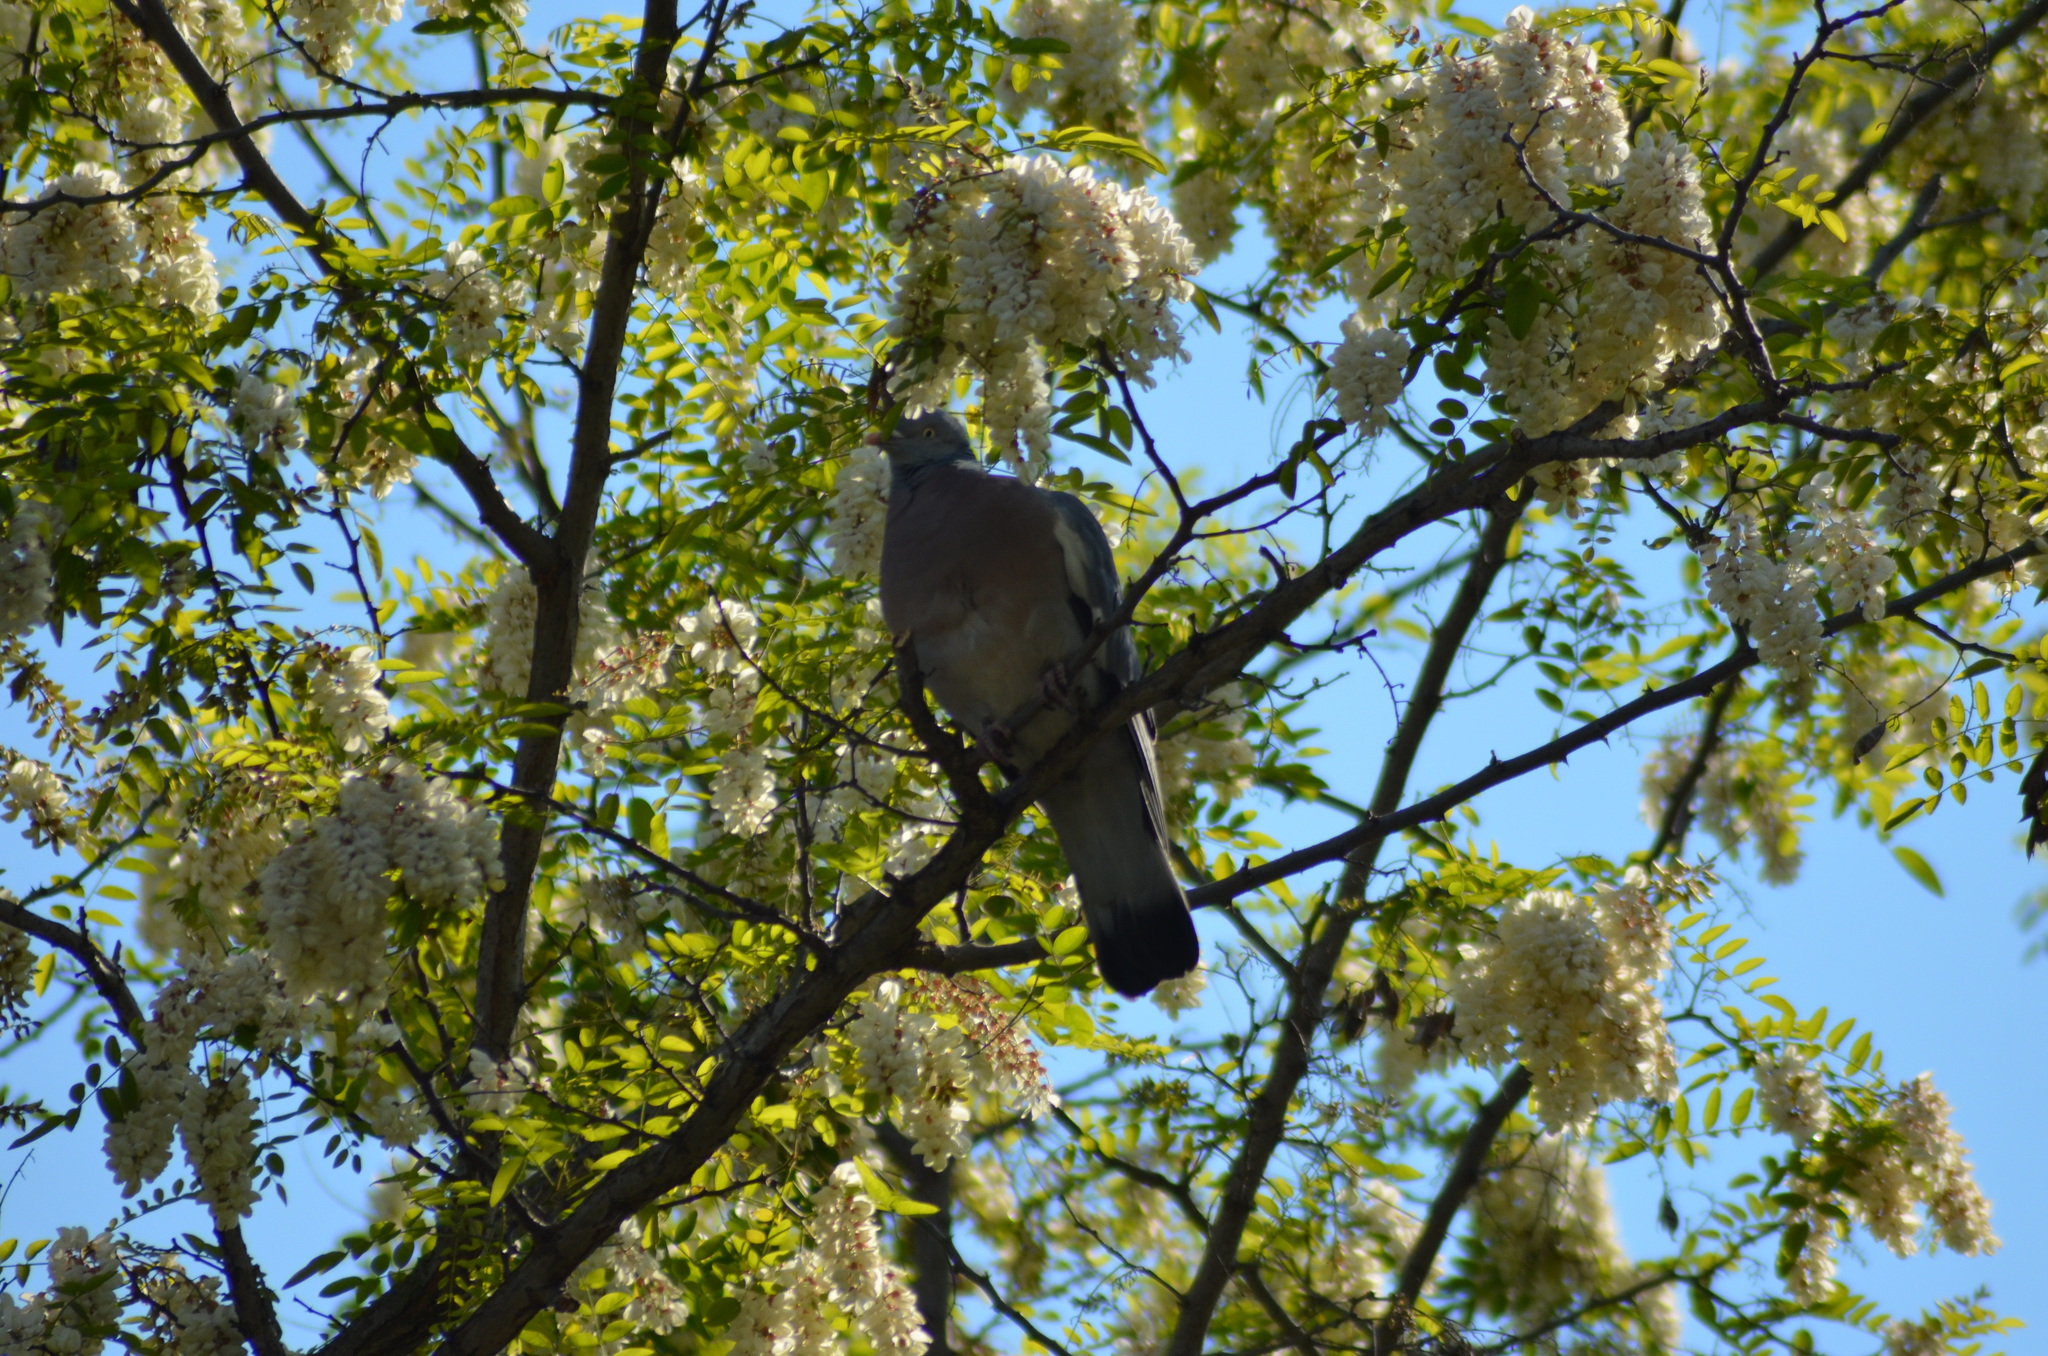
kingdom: Animalia
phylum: Chordata
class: Aves
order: Columbiformes
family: Columbidae
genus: Columba
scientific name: Columba palumbus
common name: Common wood pigeon
